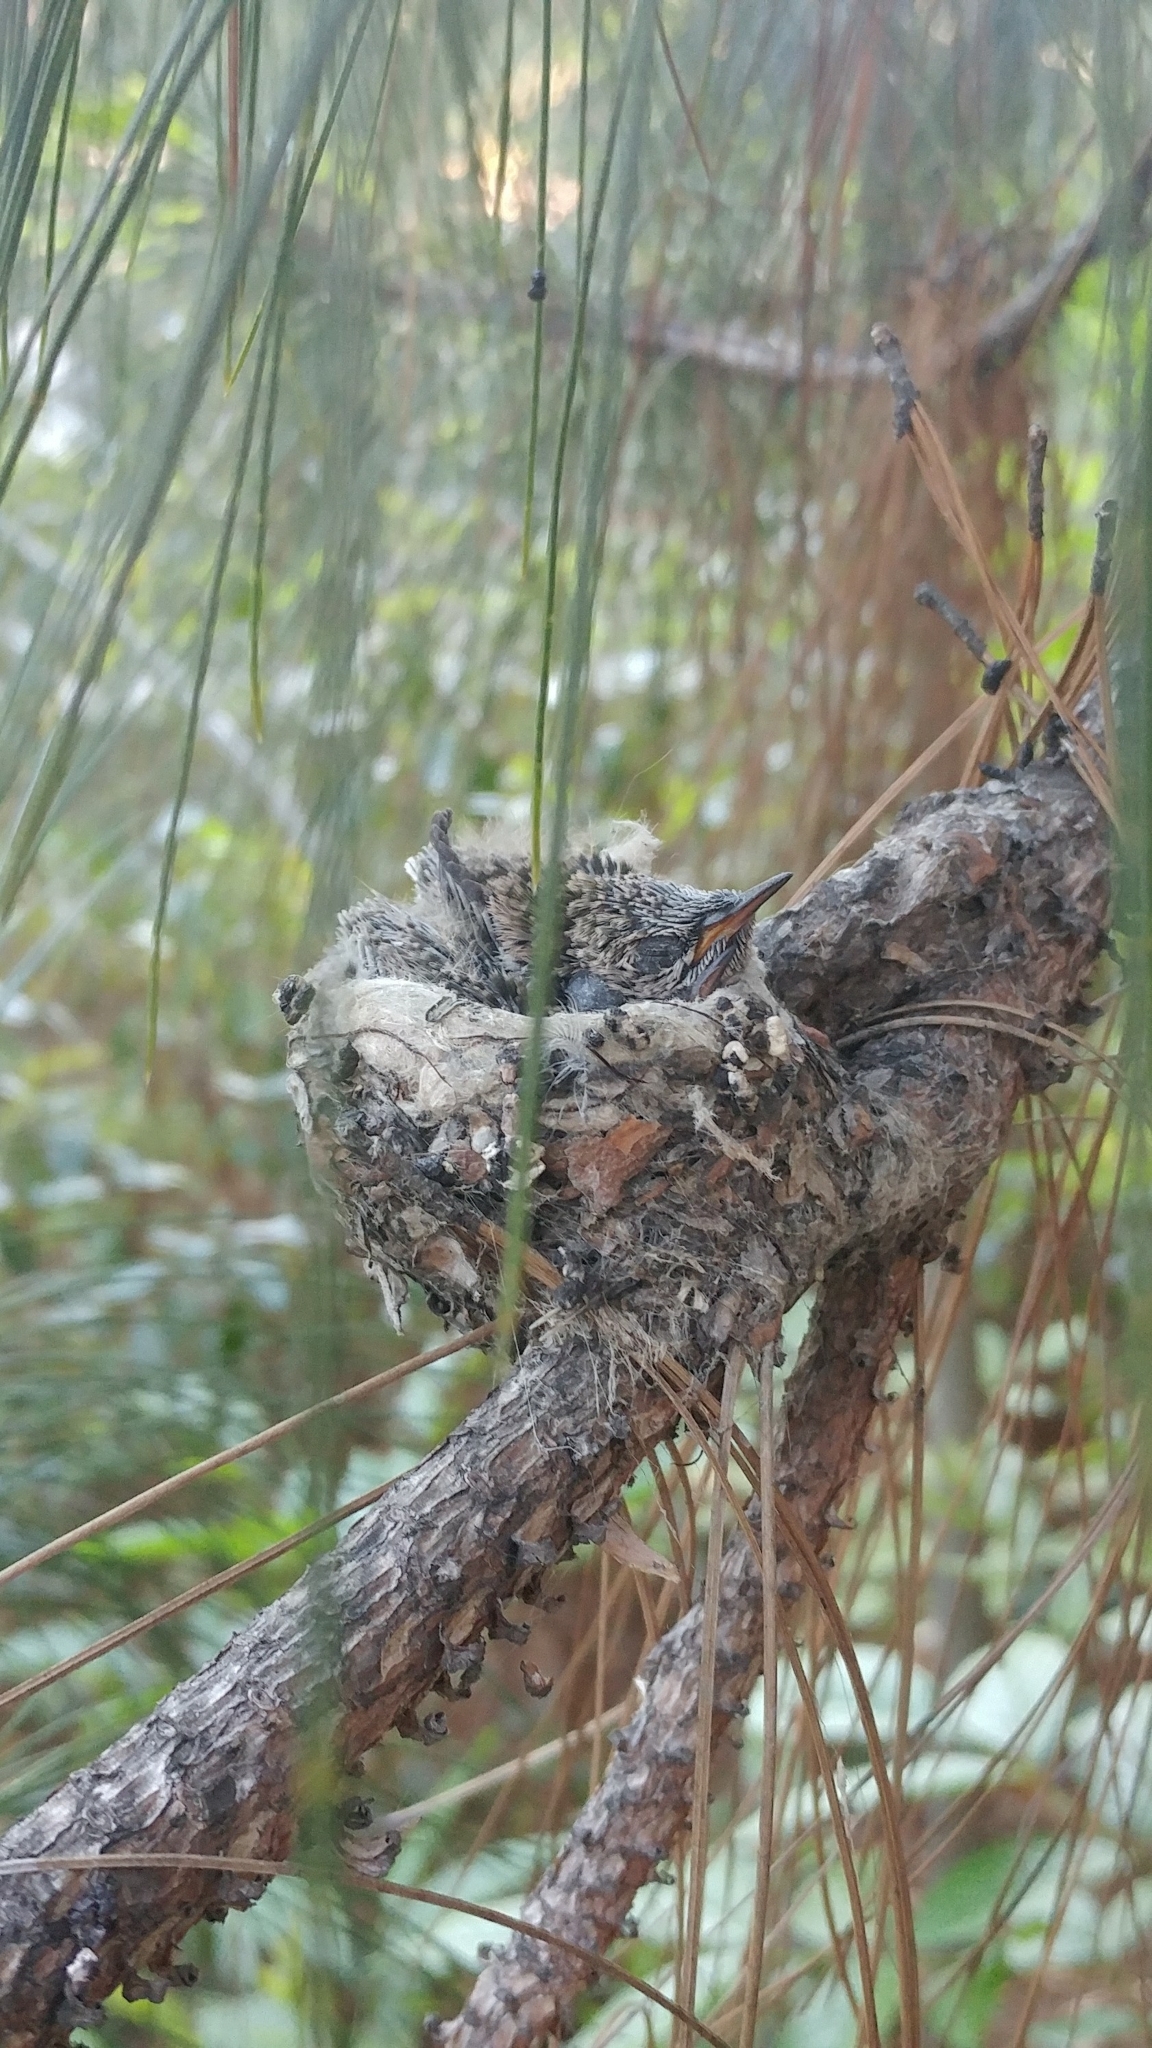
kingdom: Animalia
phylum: Chordata
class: Aves
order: Apodiformes
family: Trochilidae
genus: Calypte
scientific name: Calypte anna
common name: Anna's hummingbird
